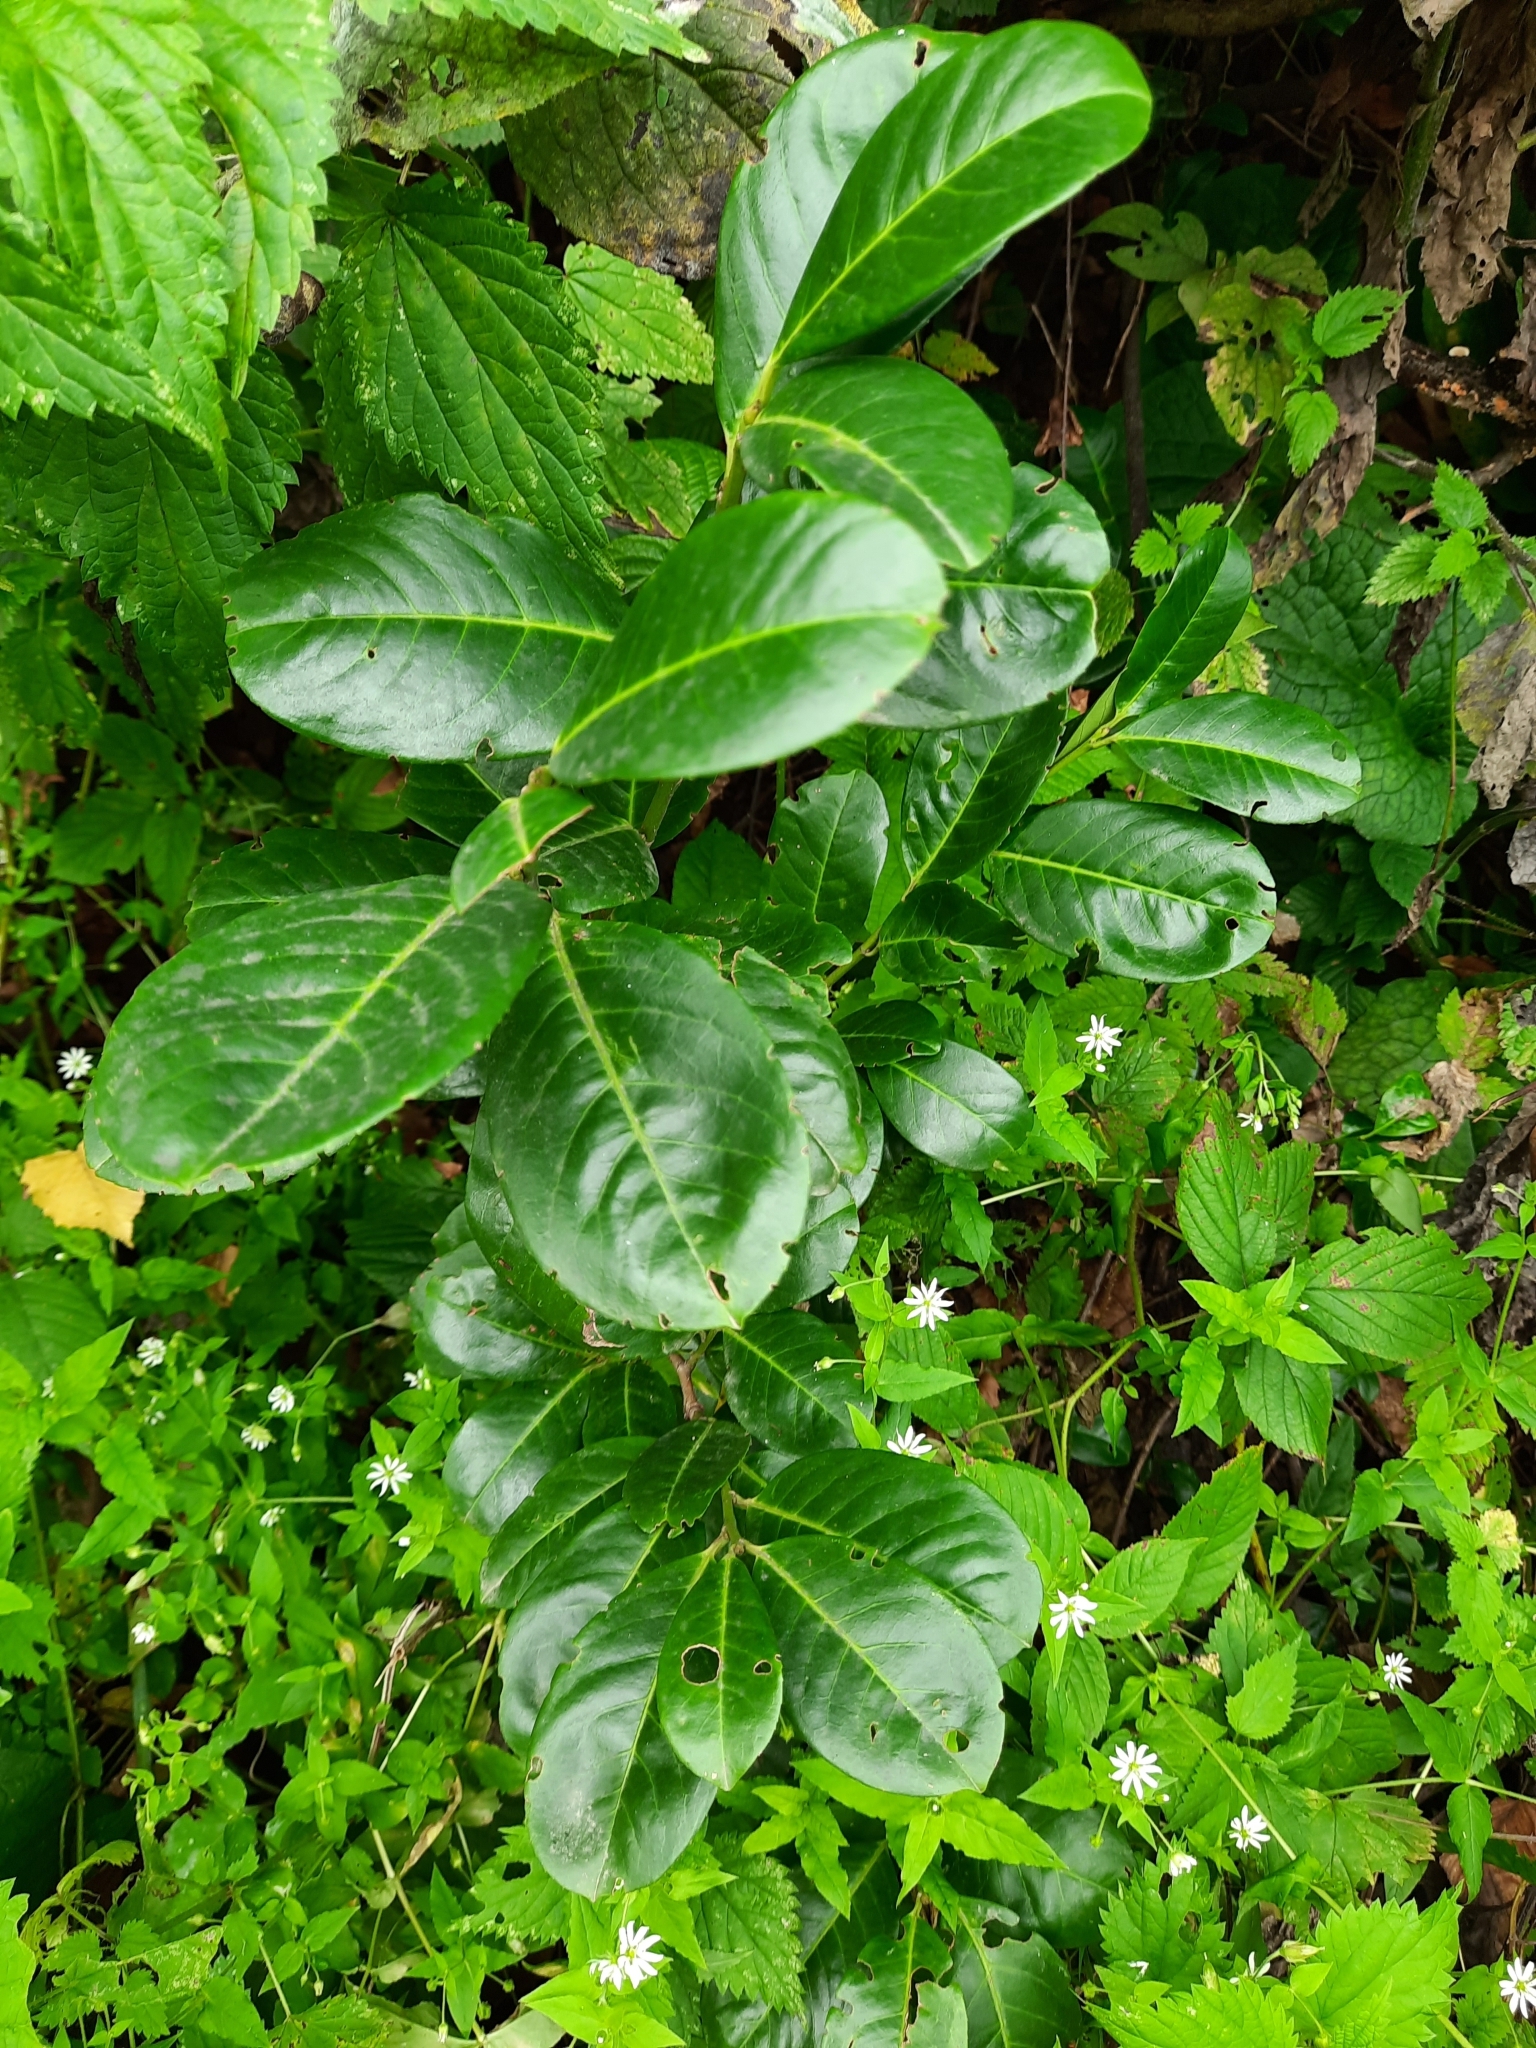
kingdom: Plantae
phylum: Tracheophyta
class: Magnoliopsida
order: Rosales
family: Rosaceae
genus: Prunus
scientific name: Prunus laurocerasus
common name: Cherry laurel
